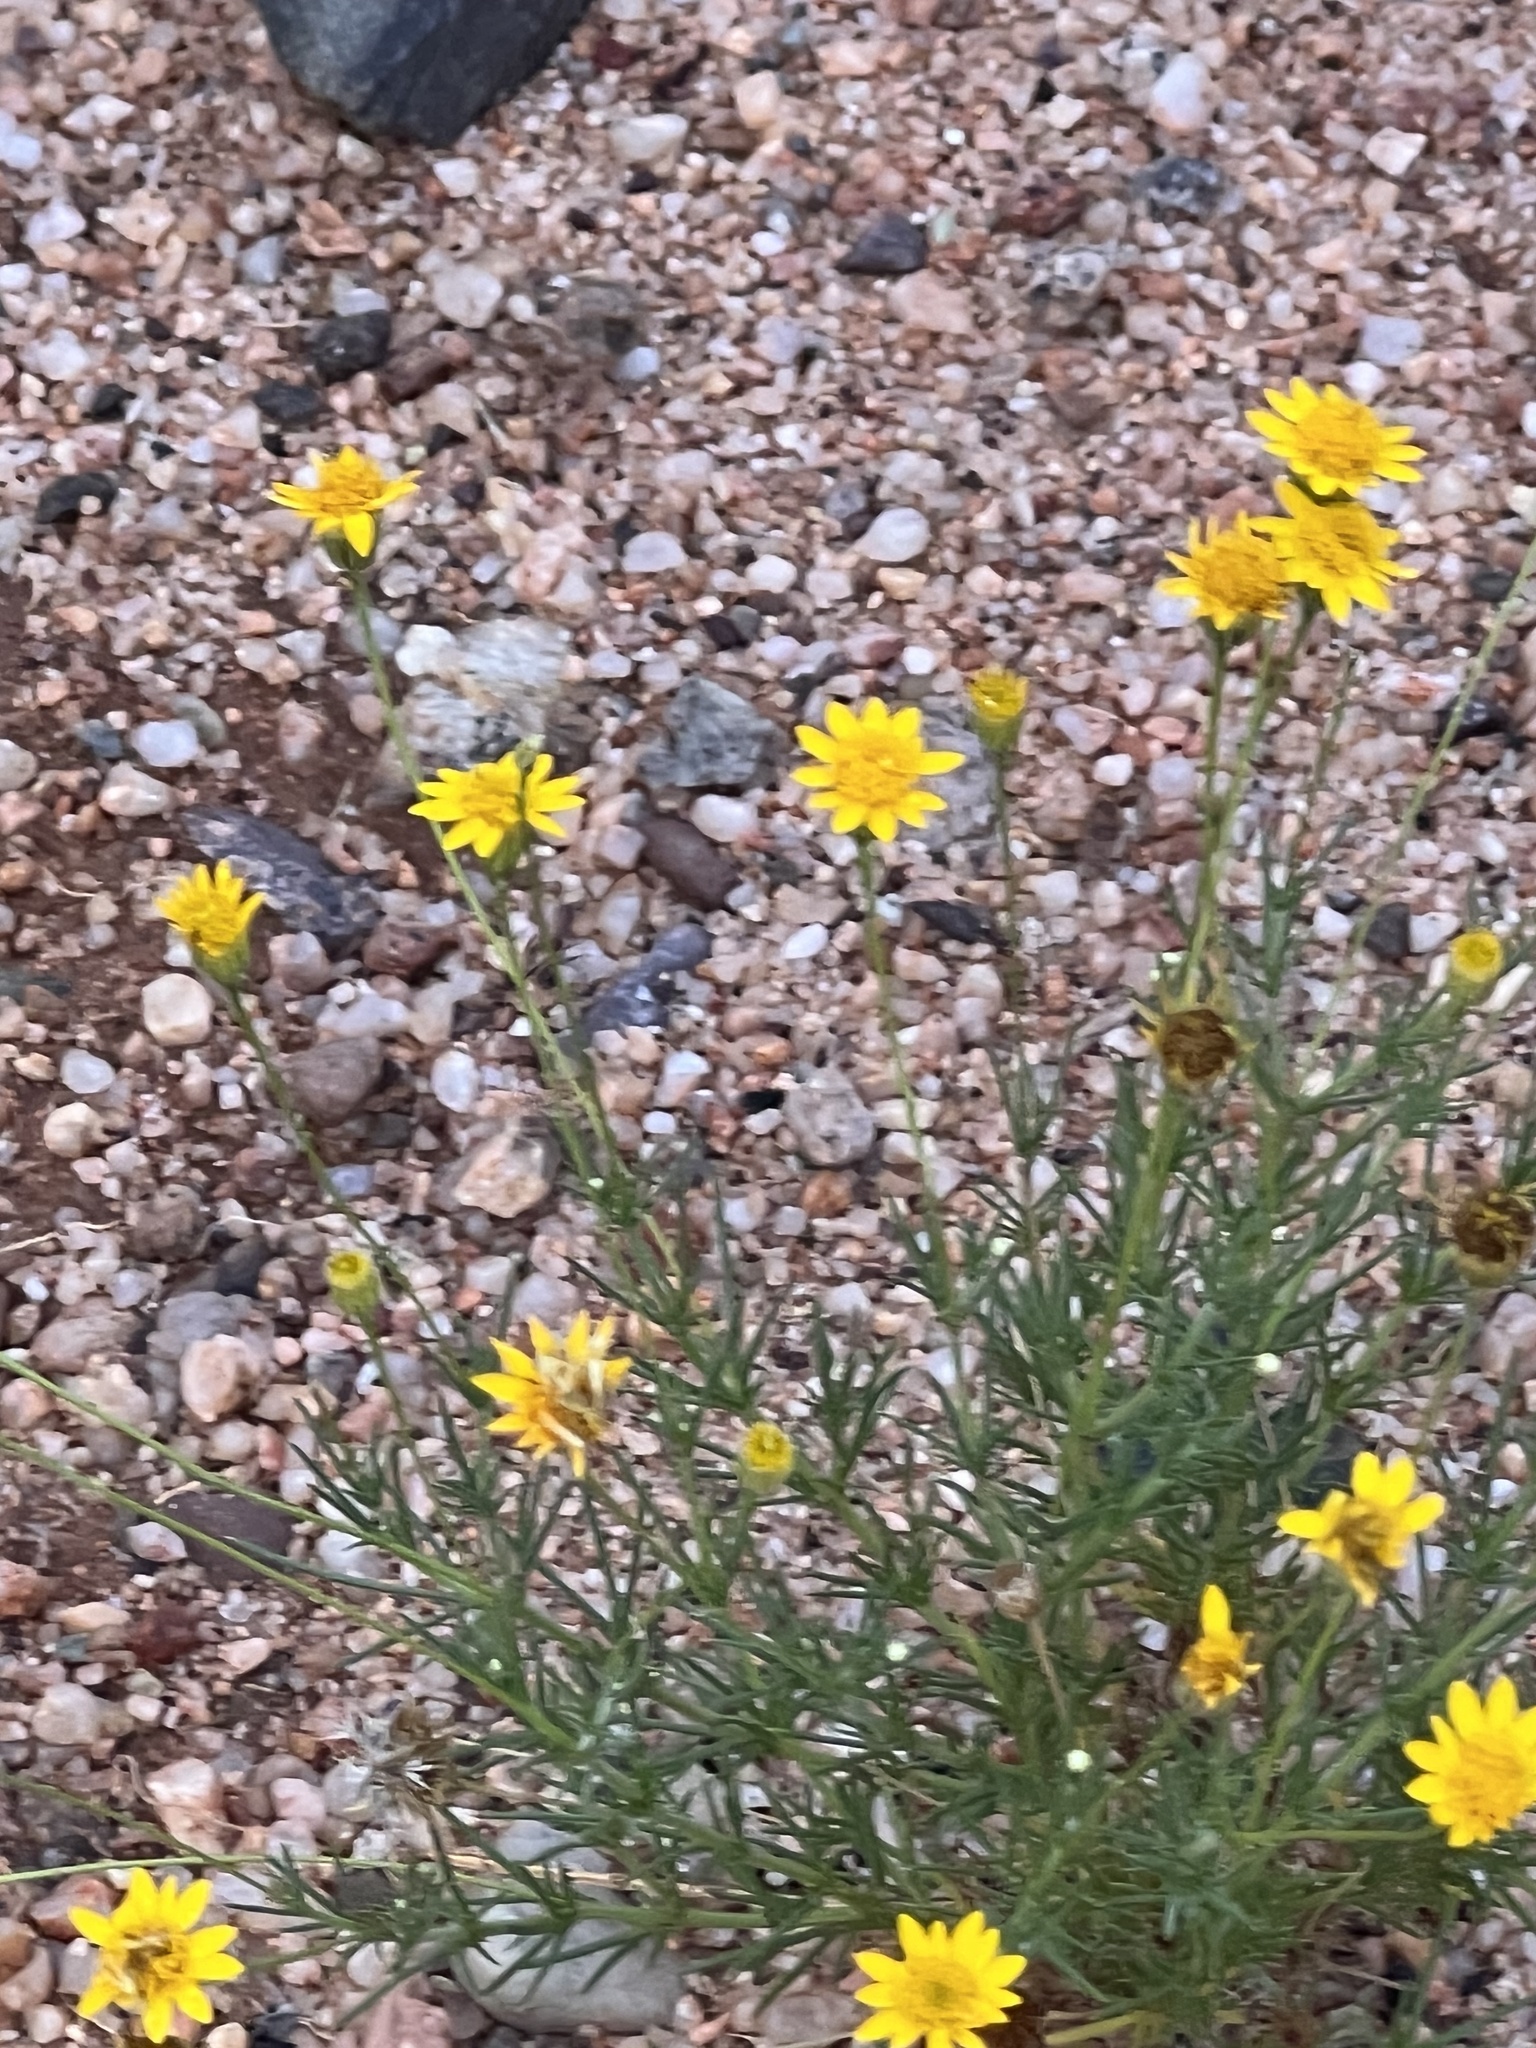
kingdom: Plantae
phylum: Tracheophyta
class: Magnoliopsida
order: Asterales
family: Asteraceae
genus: Thymophylla
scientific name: Thymophylla pentachaeta
